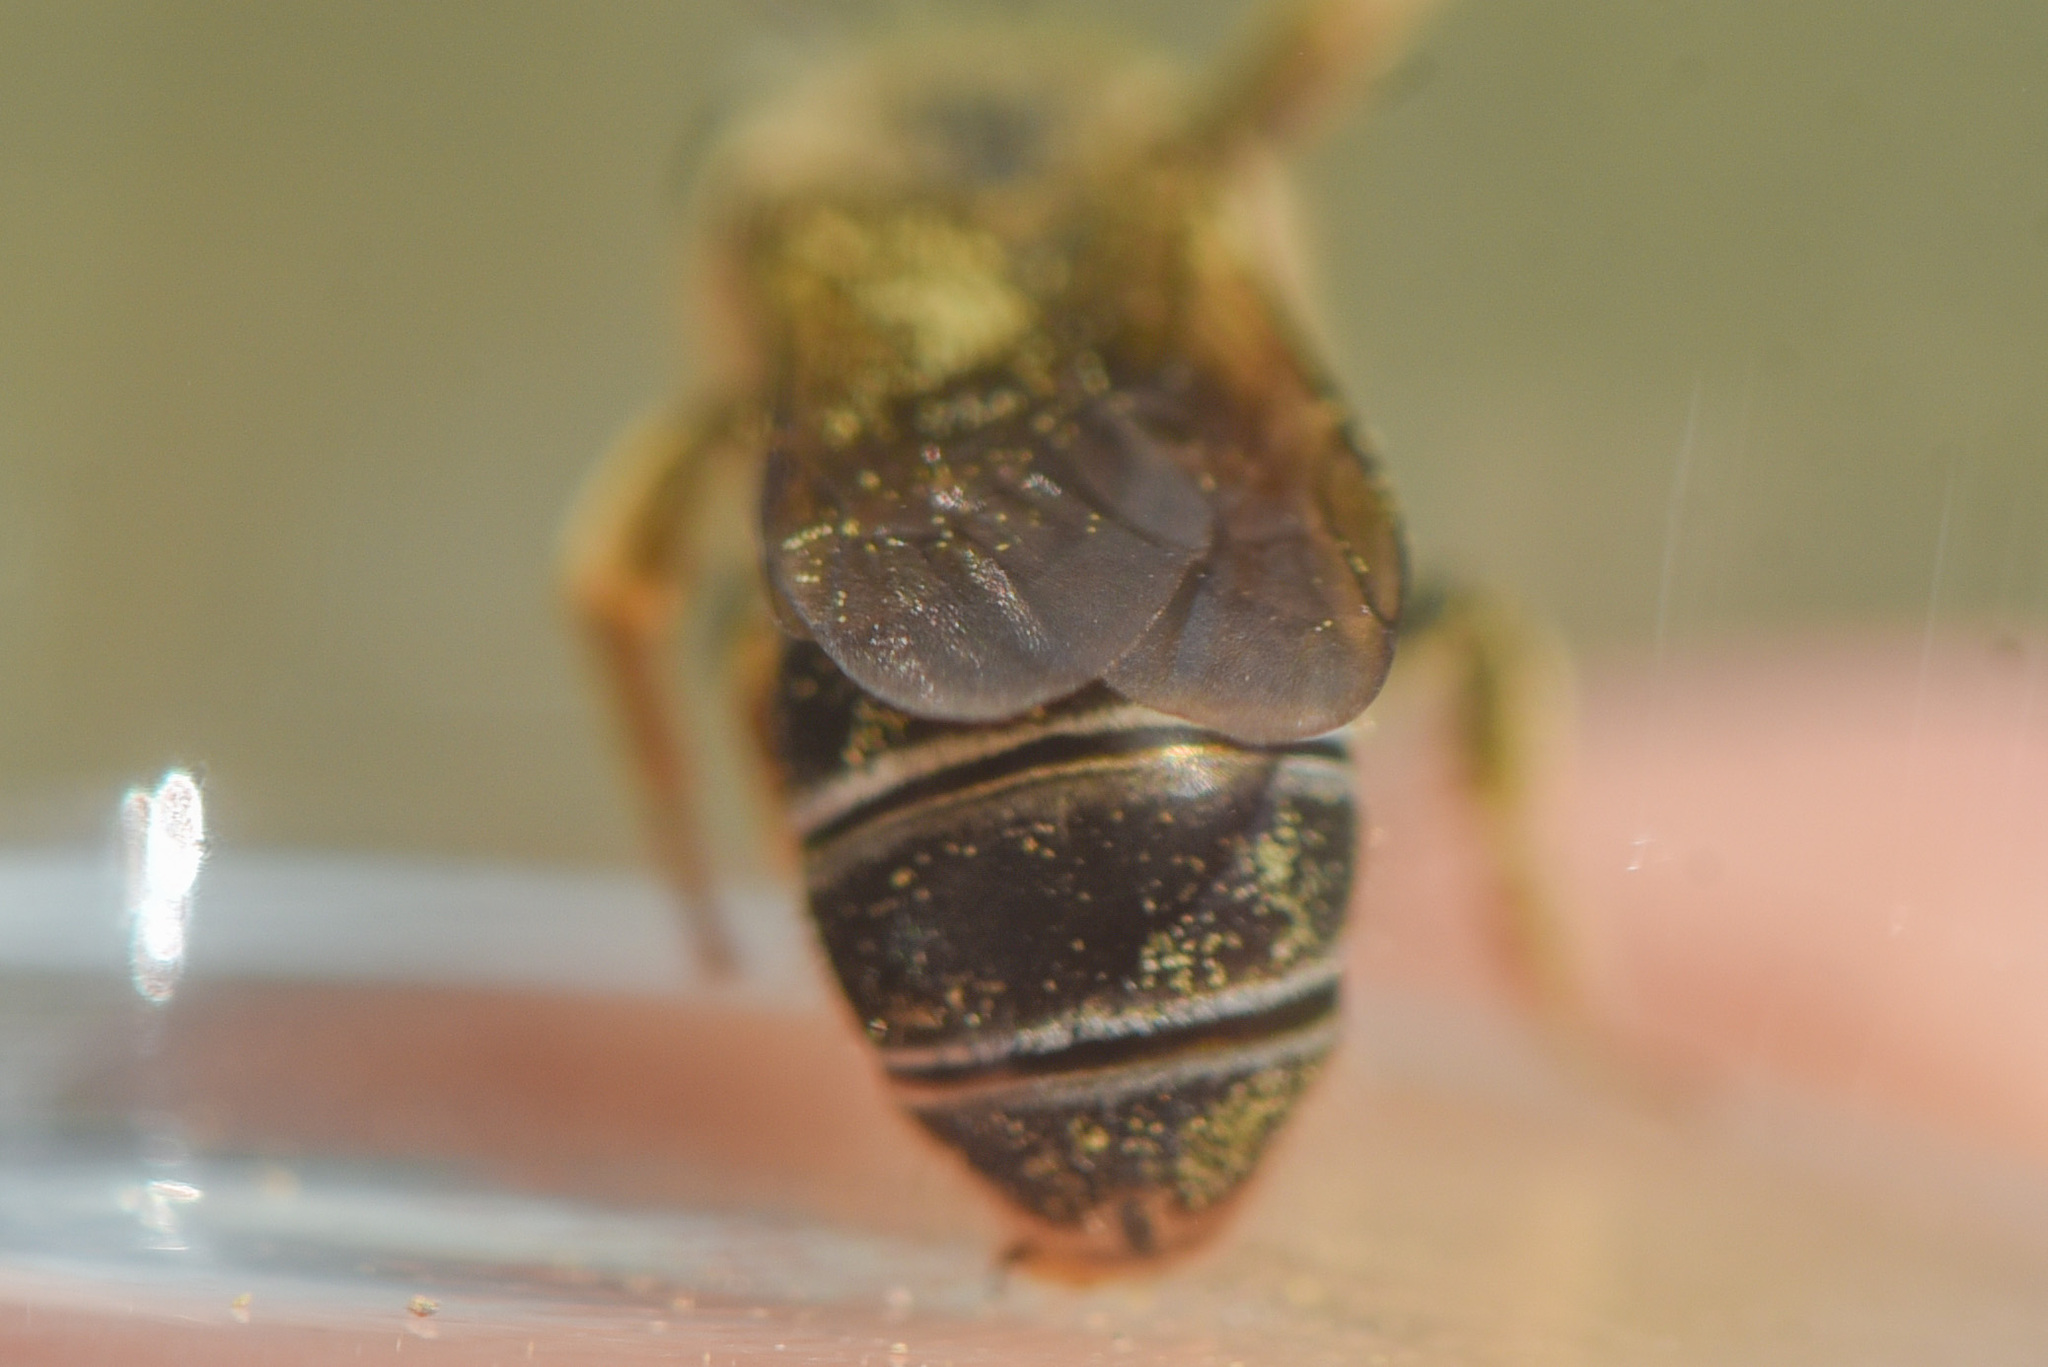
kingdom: Animalia
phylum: Arthropoda
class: Insecta
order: Hymenoptera
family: Halictidae
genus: Halictus
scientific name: Halictus rubicundus
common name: Orange-legged furrow bee
